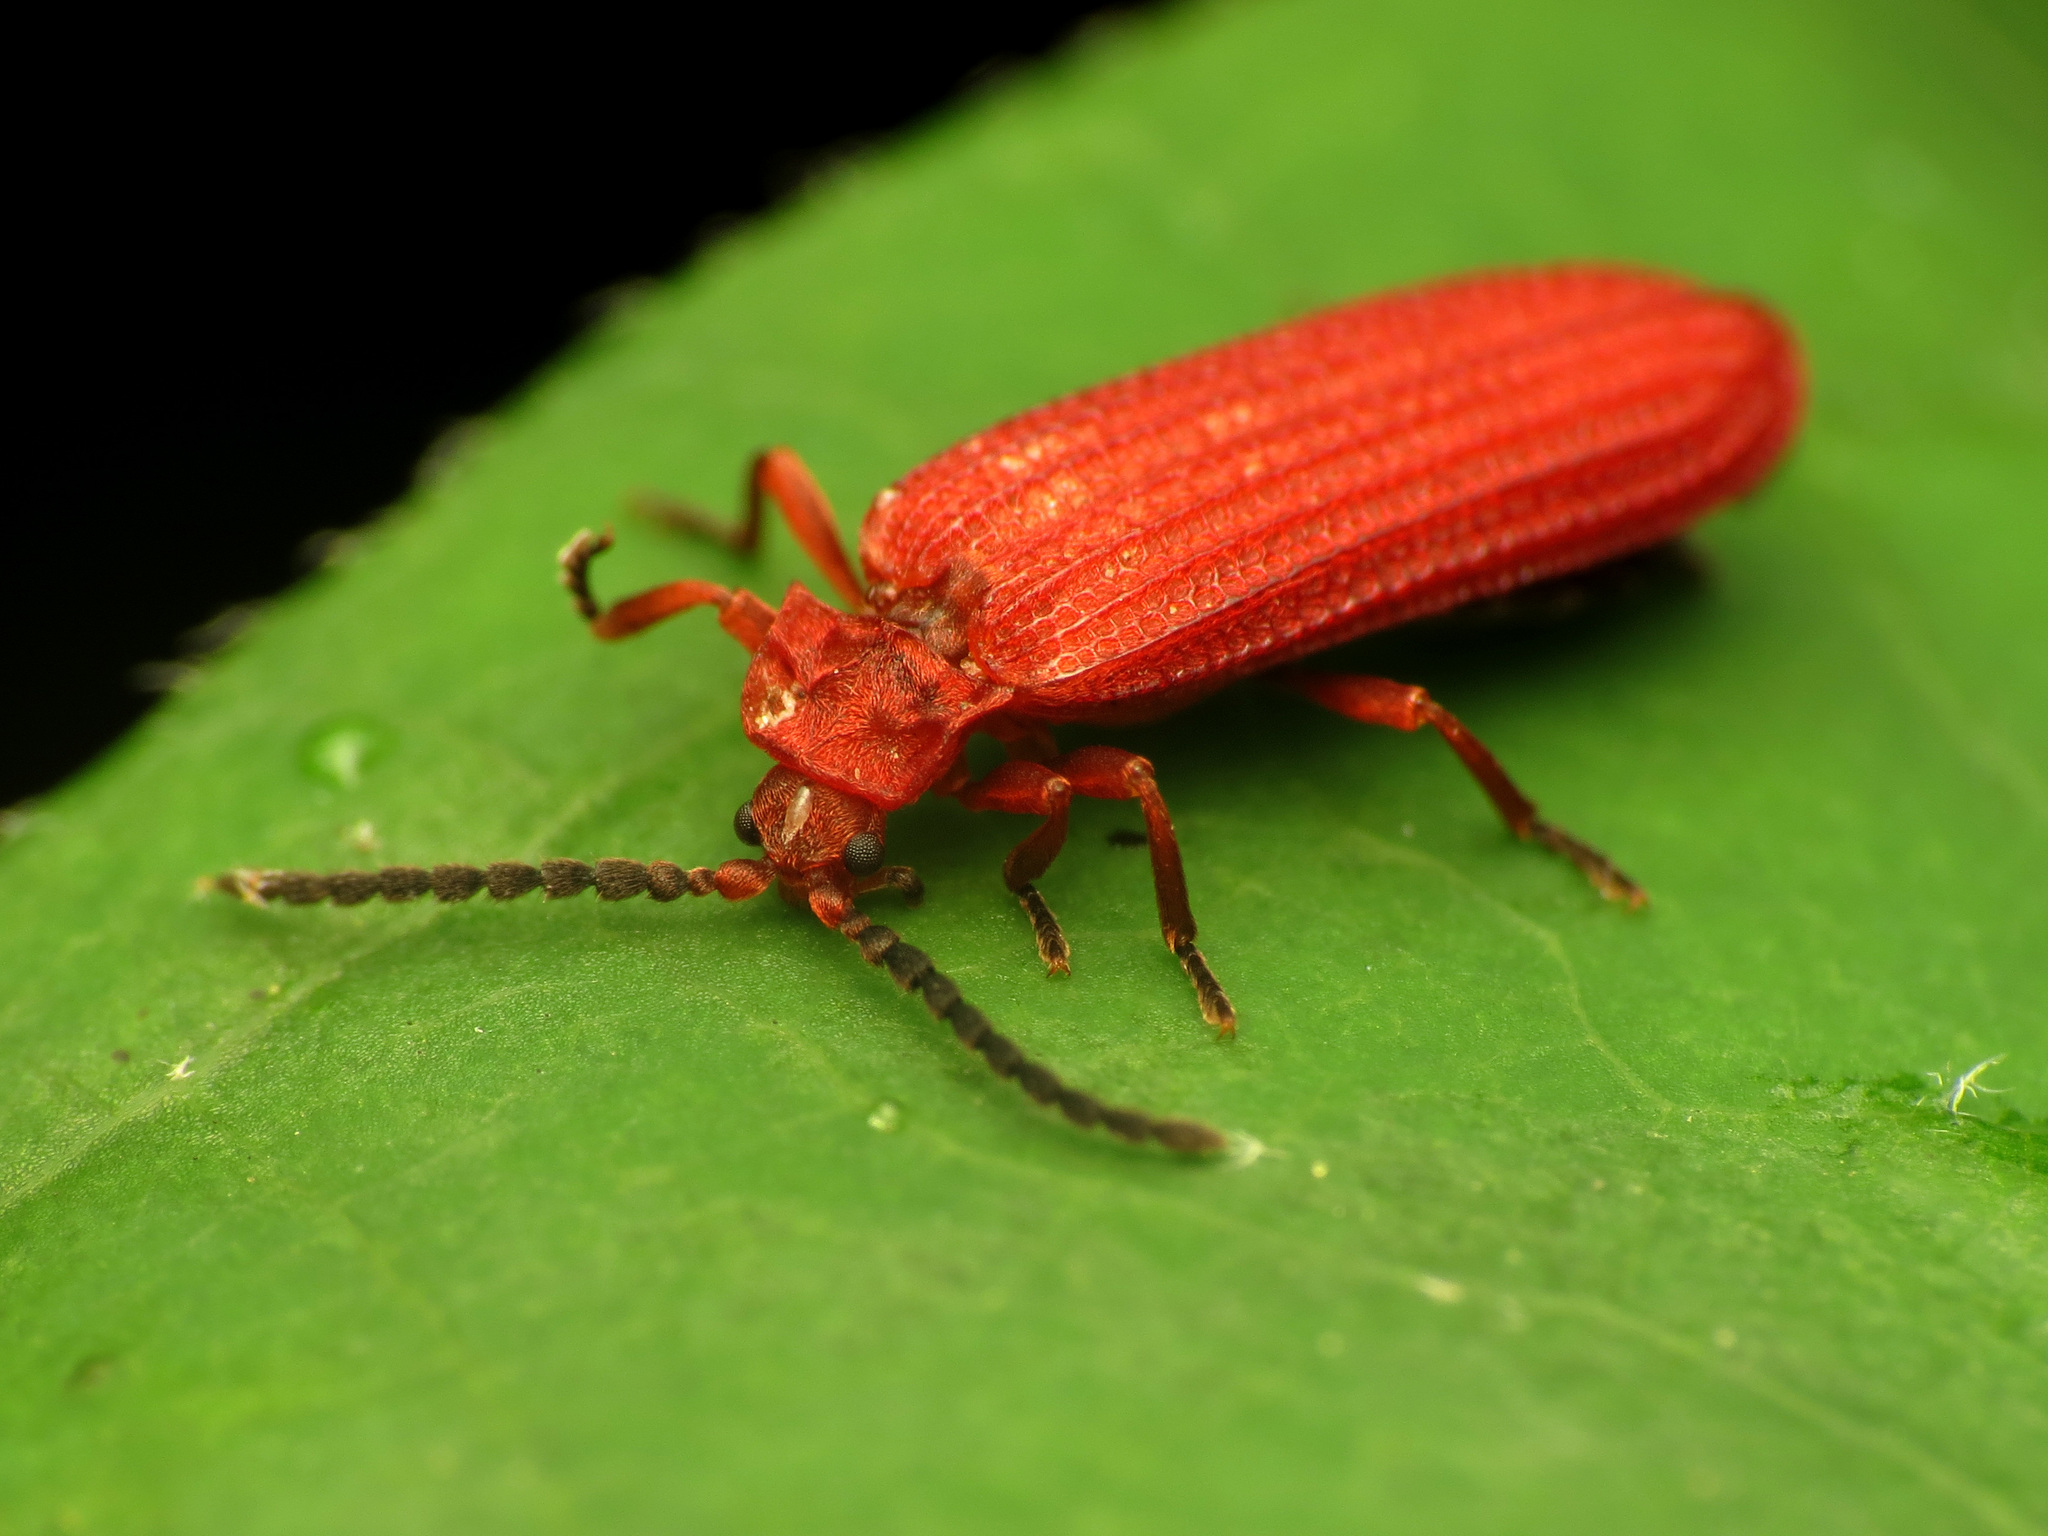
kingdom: Animalia
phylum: Arthropoda
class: Insecta
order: Coleoptera
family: Lycidae
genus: Punicealis
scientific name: Punicealis
